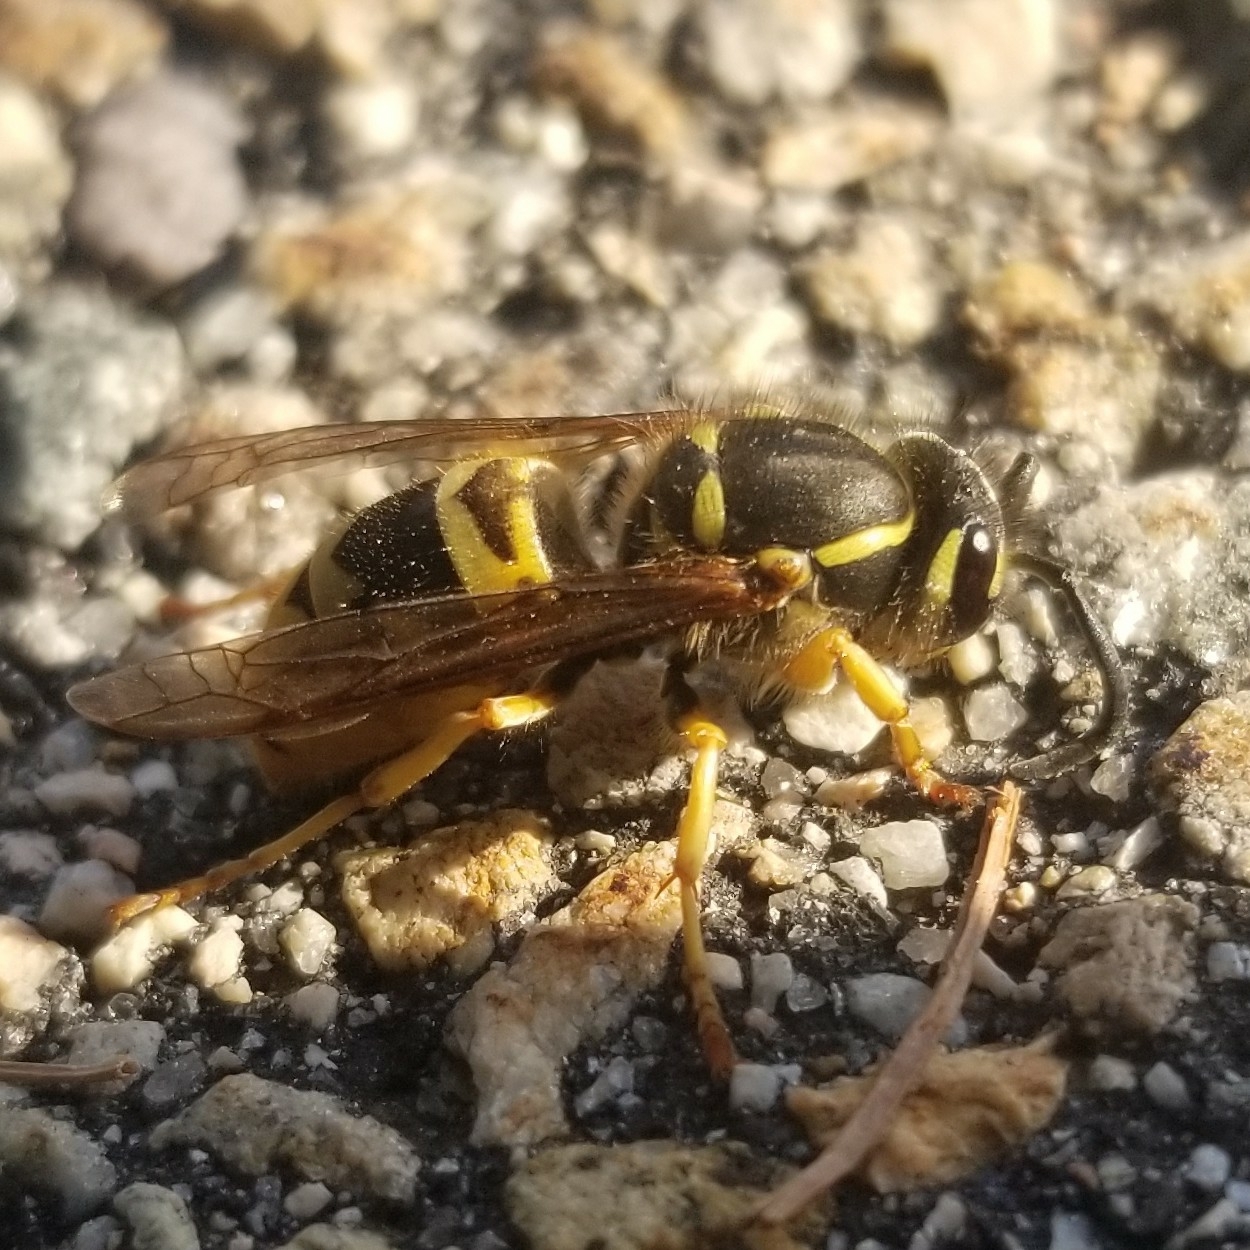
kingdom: Animalia
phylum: Arthropoda
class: Insecta
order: Hymenoptera
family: Vespidae
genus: Vespula
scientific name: Vespula maculifrons
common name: Eastern yellowjacket
